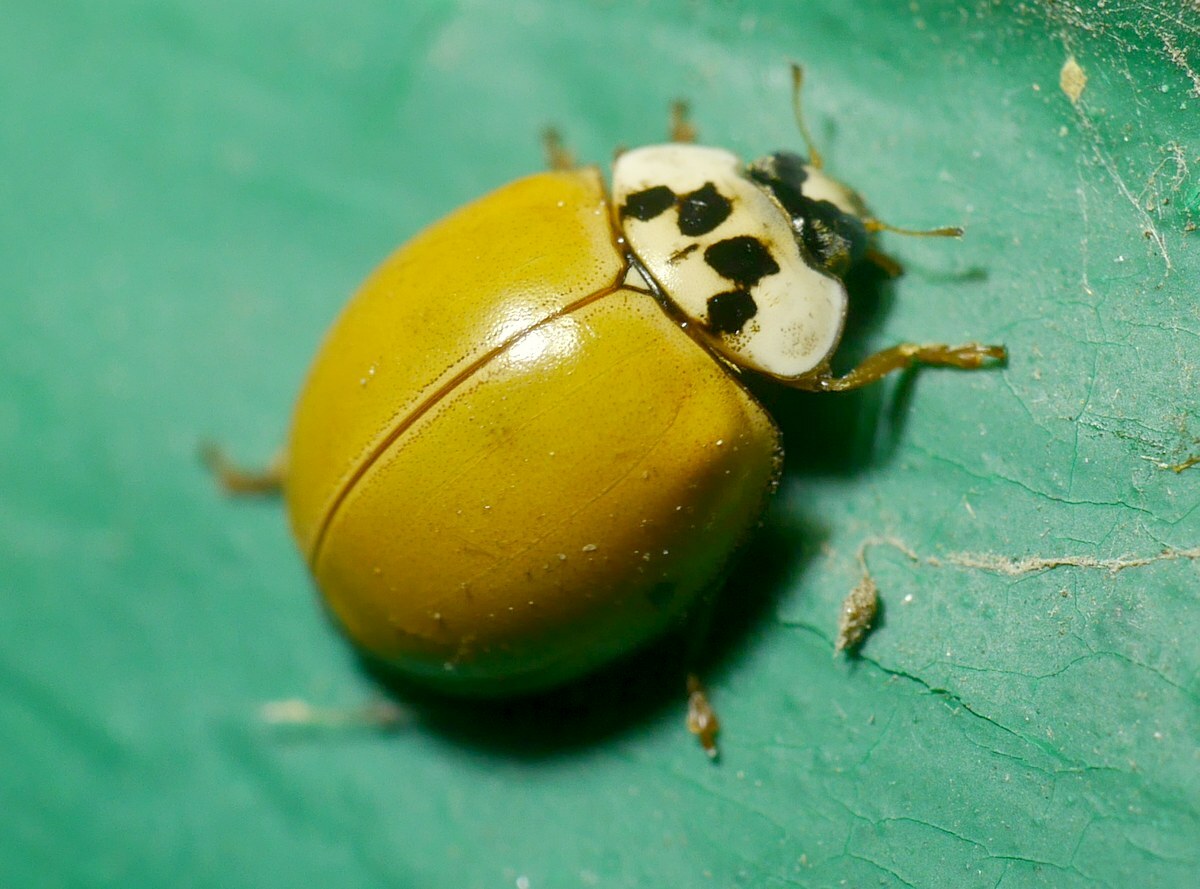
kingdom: Animalia
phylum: Arthropoda
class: Insecta
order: Coleoptera
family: Coccinellidae
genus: Harmonia
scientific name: Harmonia axyridis
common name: Harlequin ladybird
